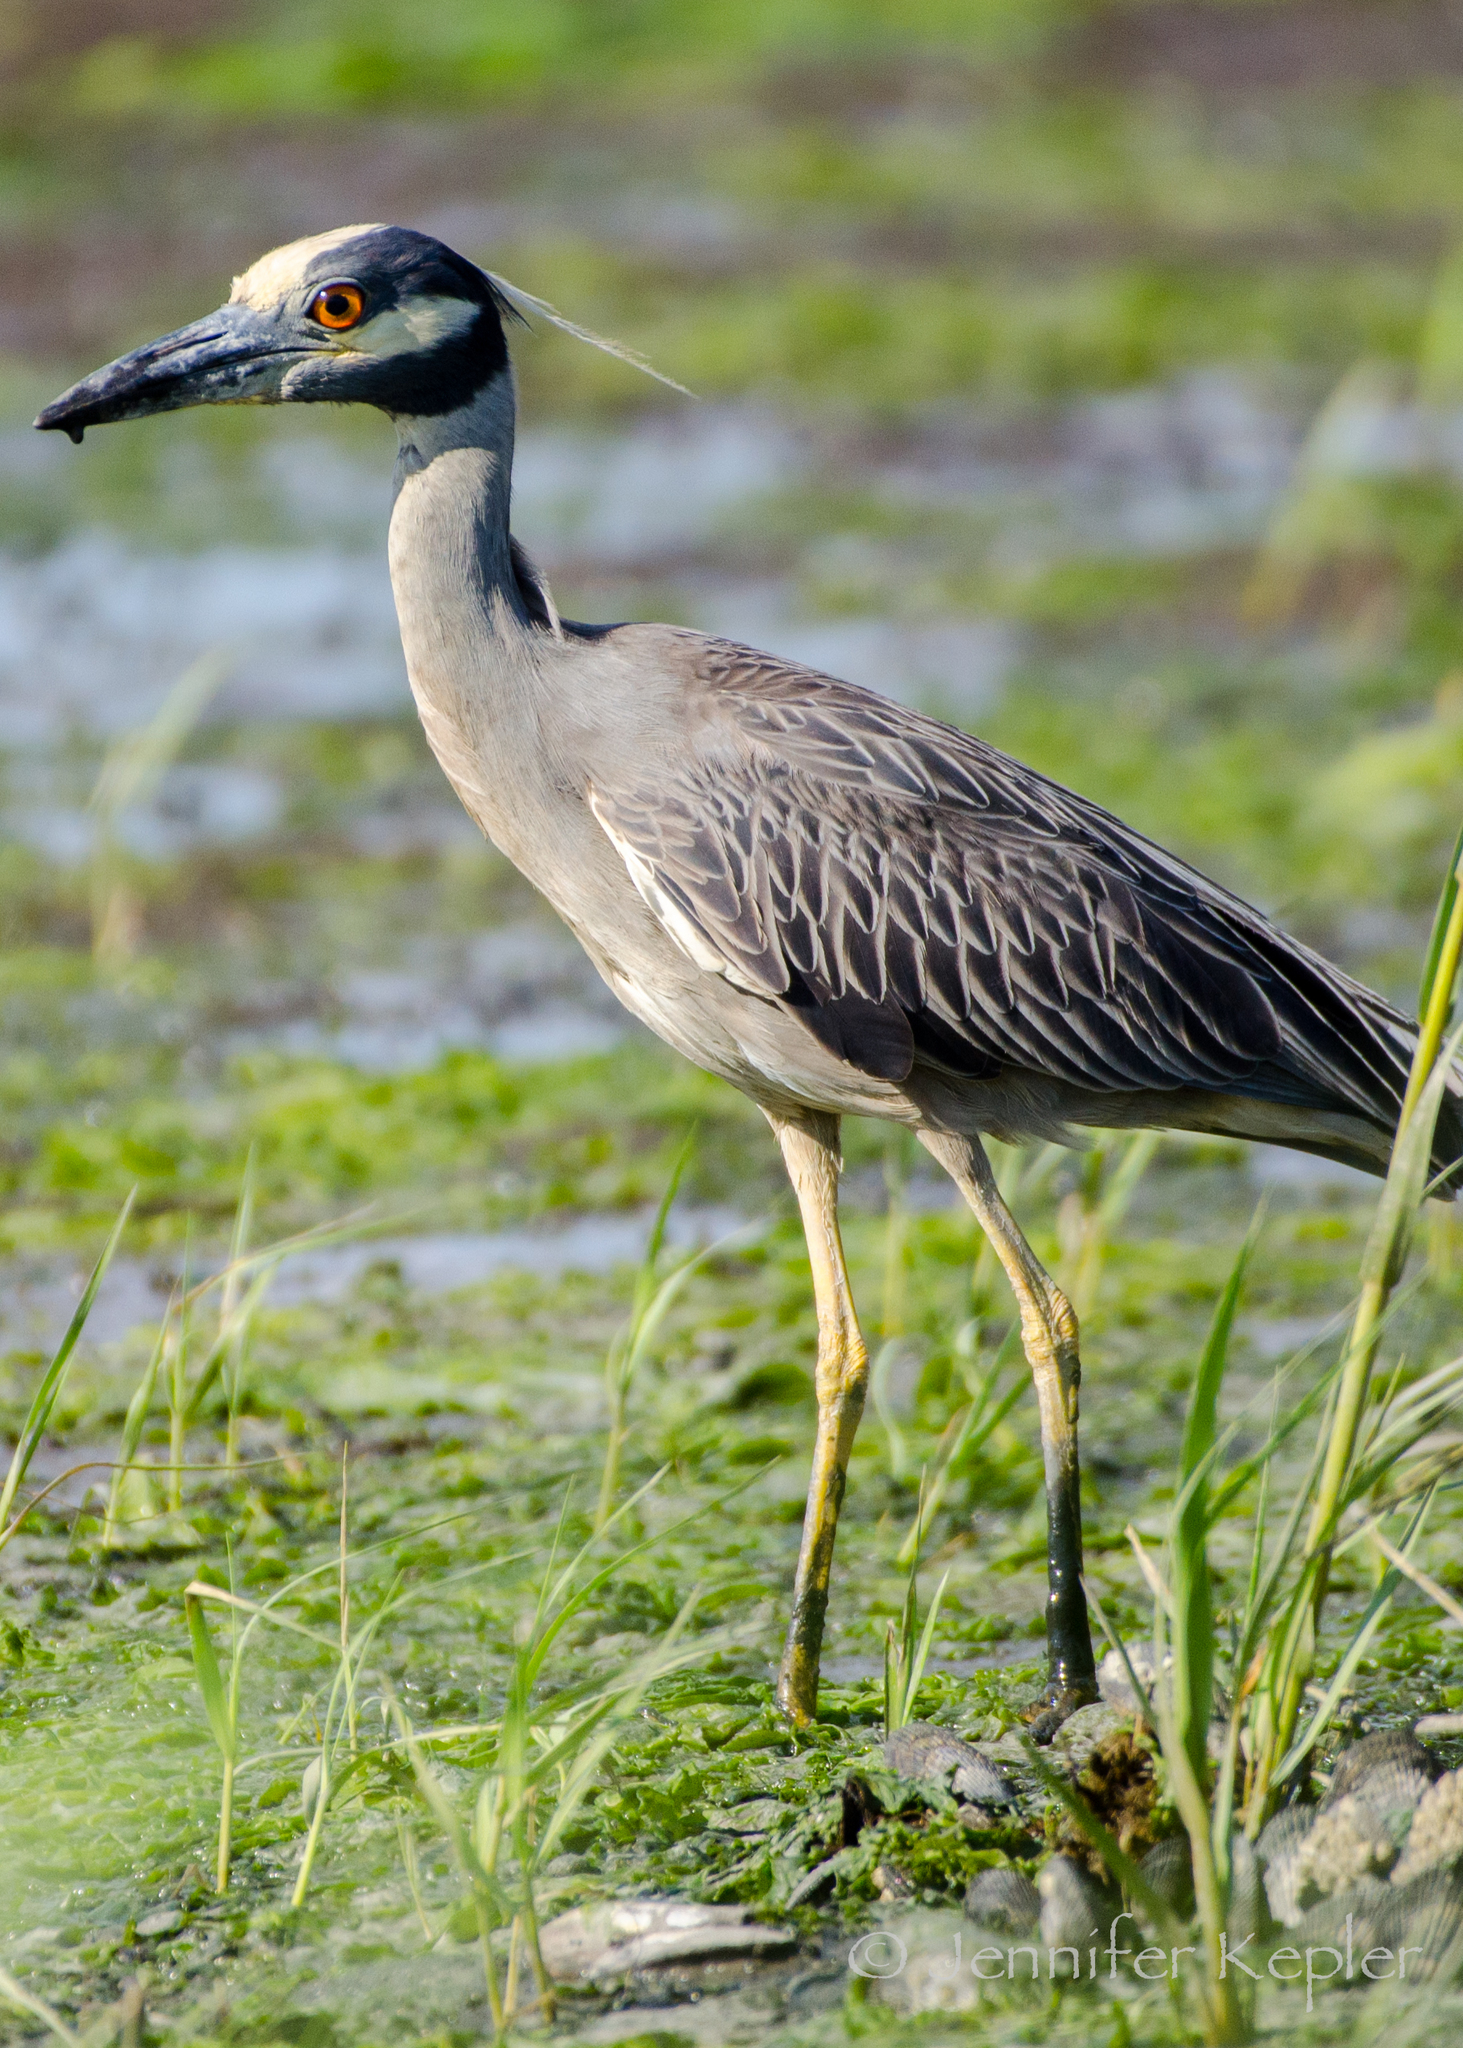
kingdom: Animalia
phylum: Chordata
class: Aves
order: Pelecaniformes
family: Ardeidae
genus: Nyctanassa
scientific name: Nyctanassa violacea
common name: Yellow-crowned night heron
